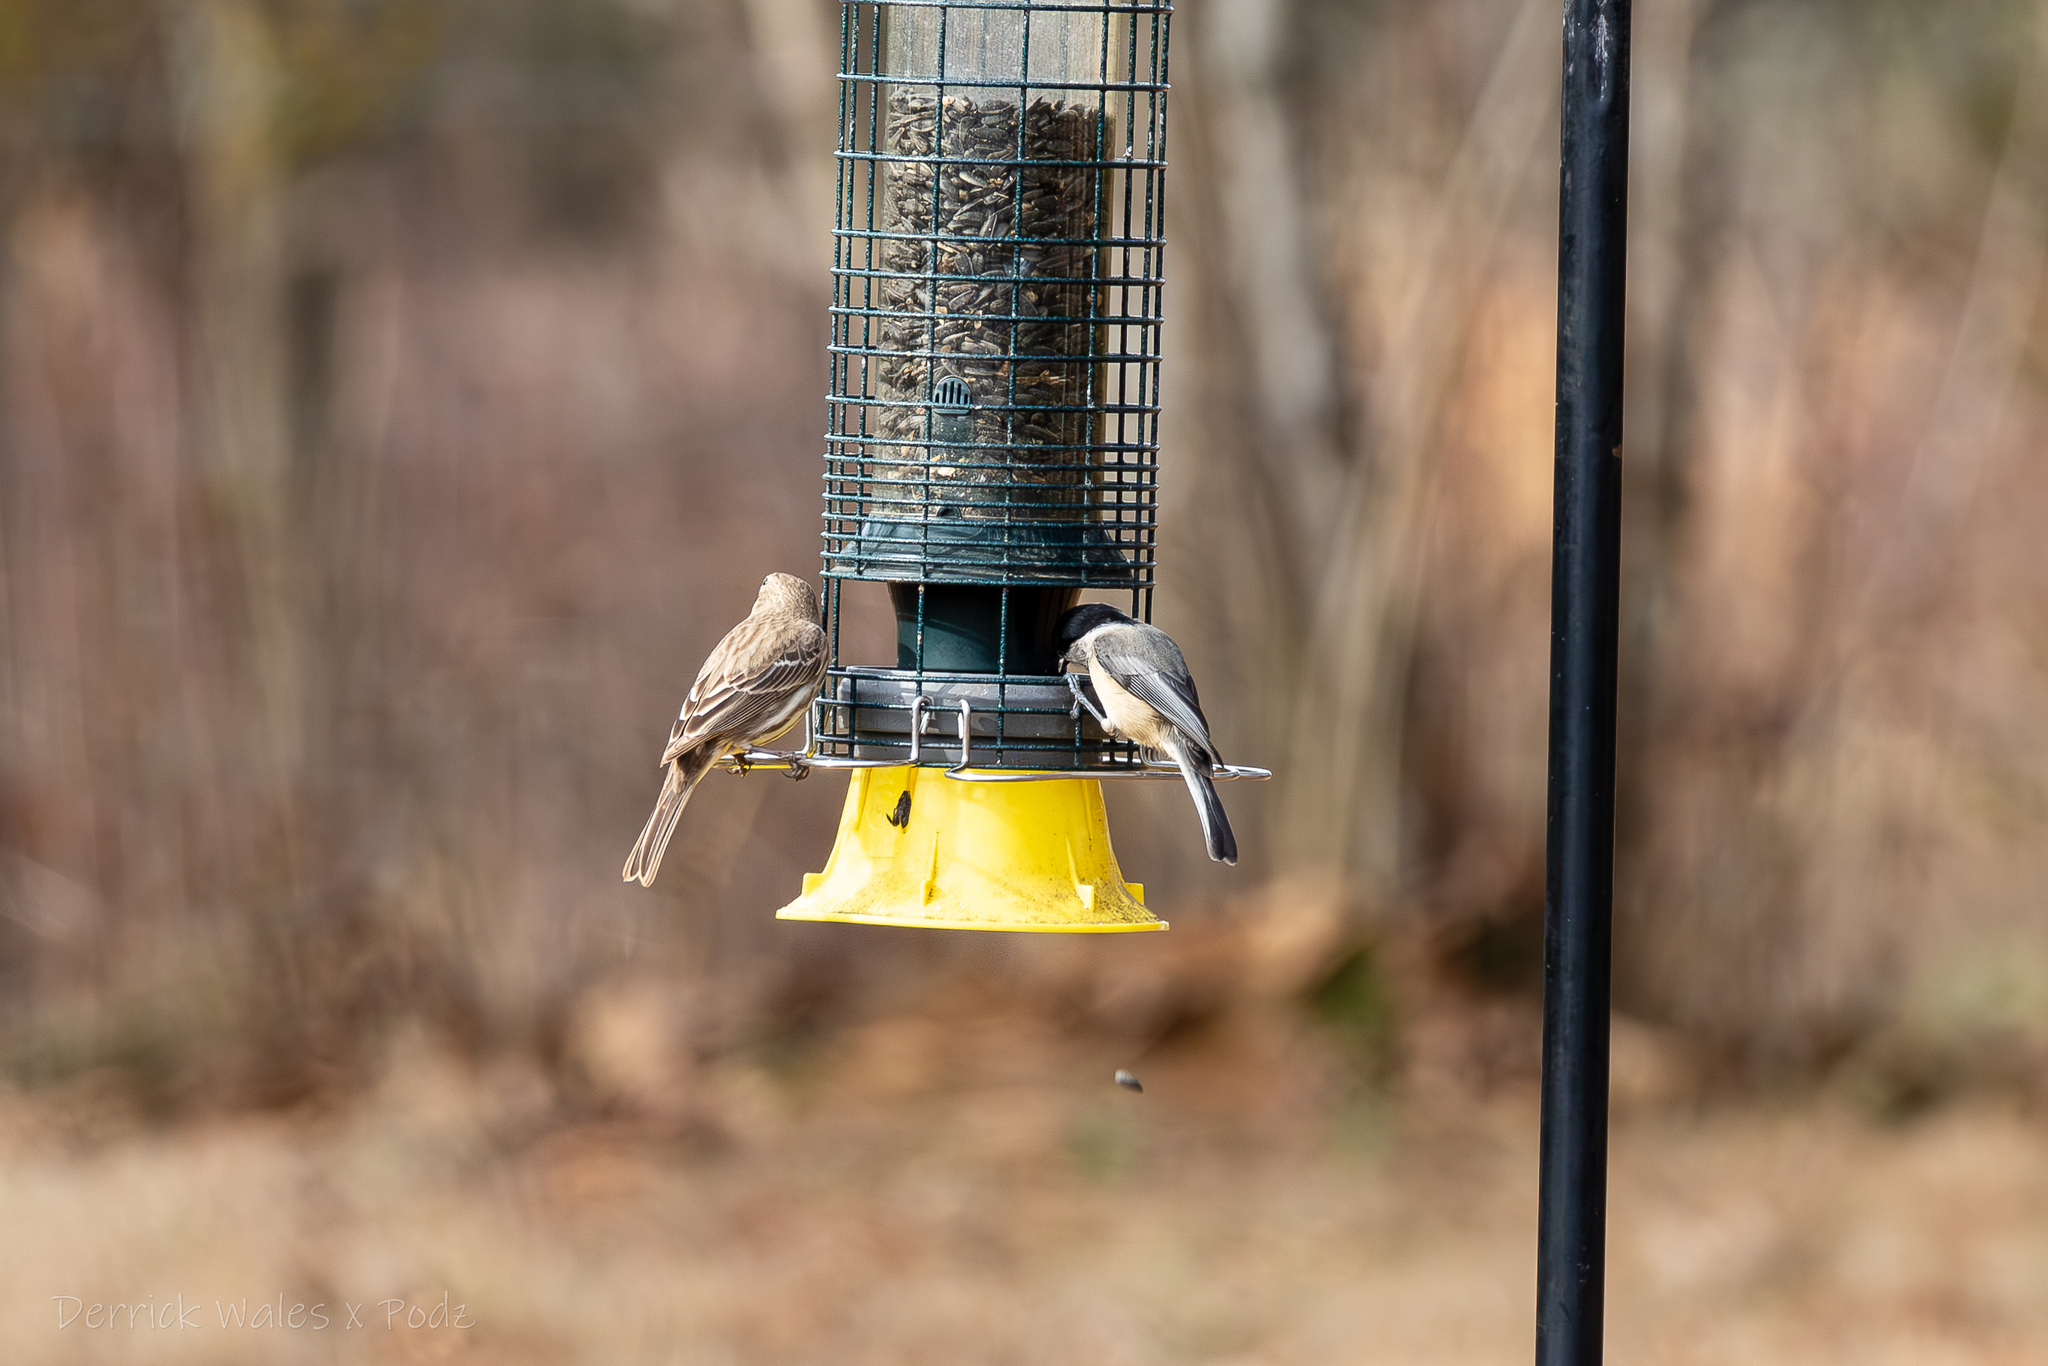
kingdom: Animalia
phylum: Chordata
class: Aves
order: Passeriformes
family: Fringillidae
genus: Haemorhous
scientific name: Haemorhous mexicanus
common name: House finch
